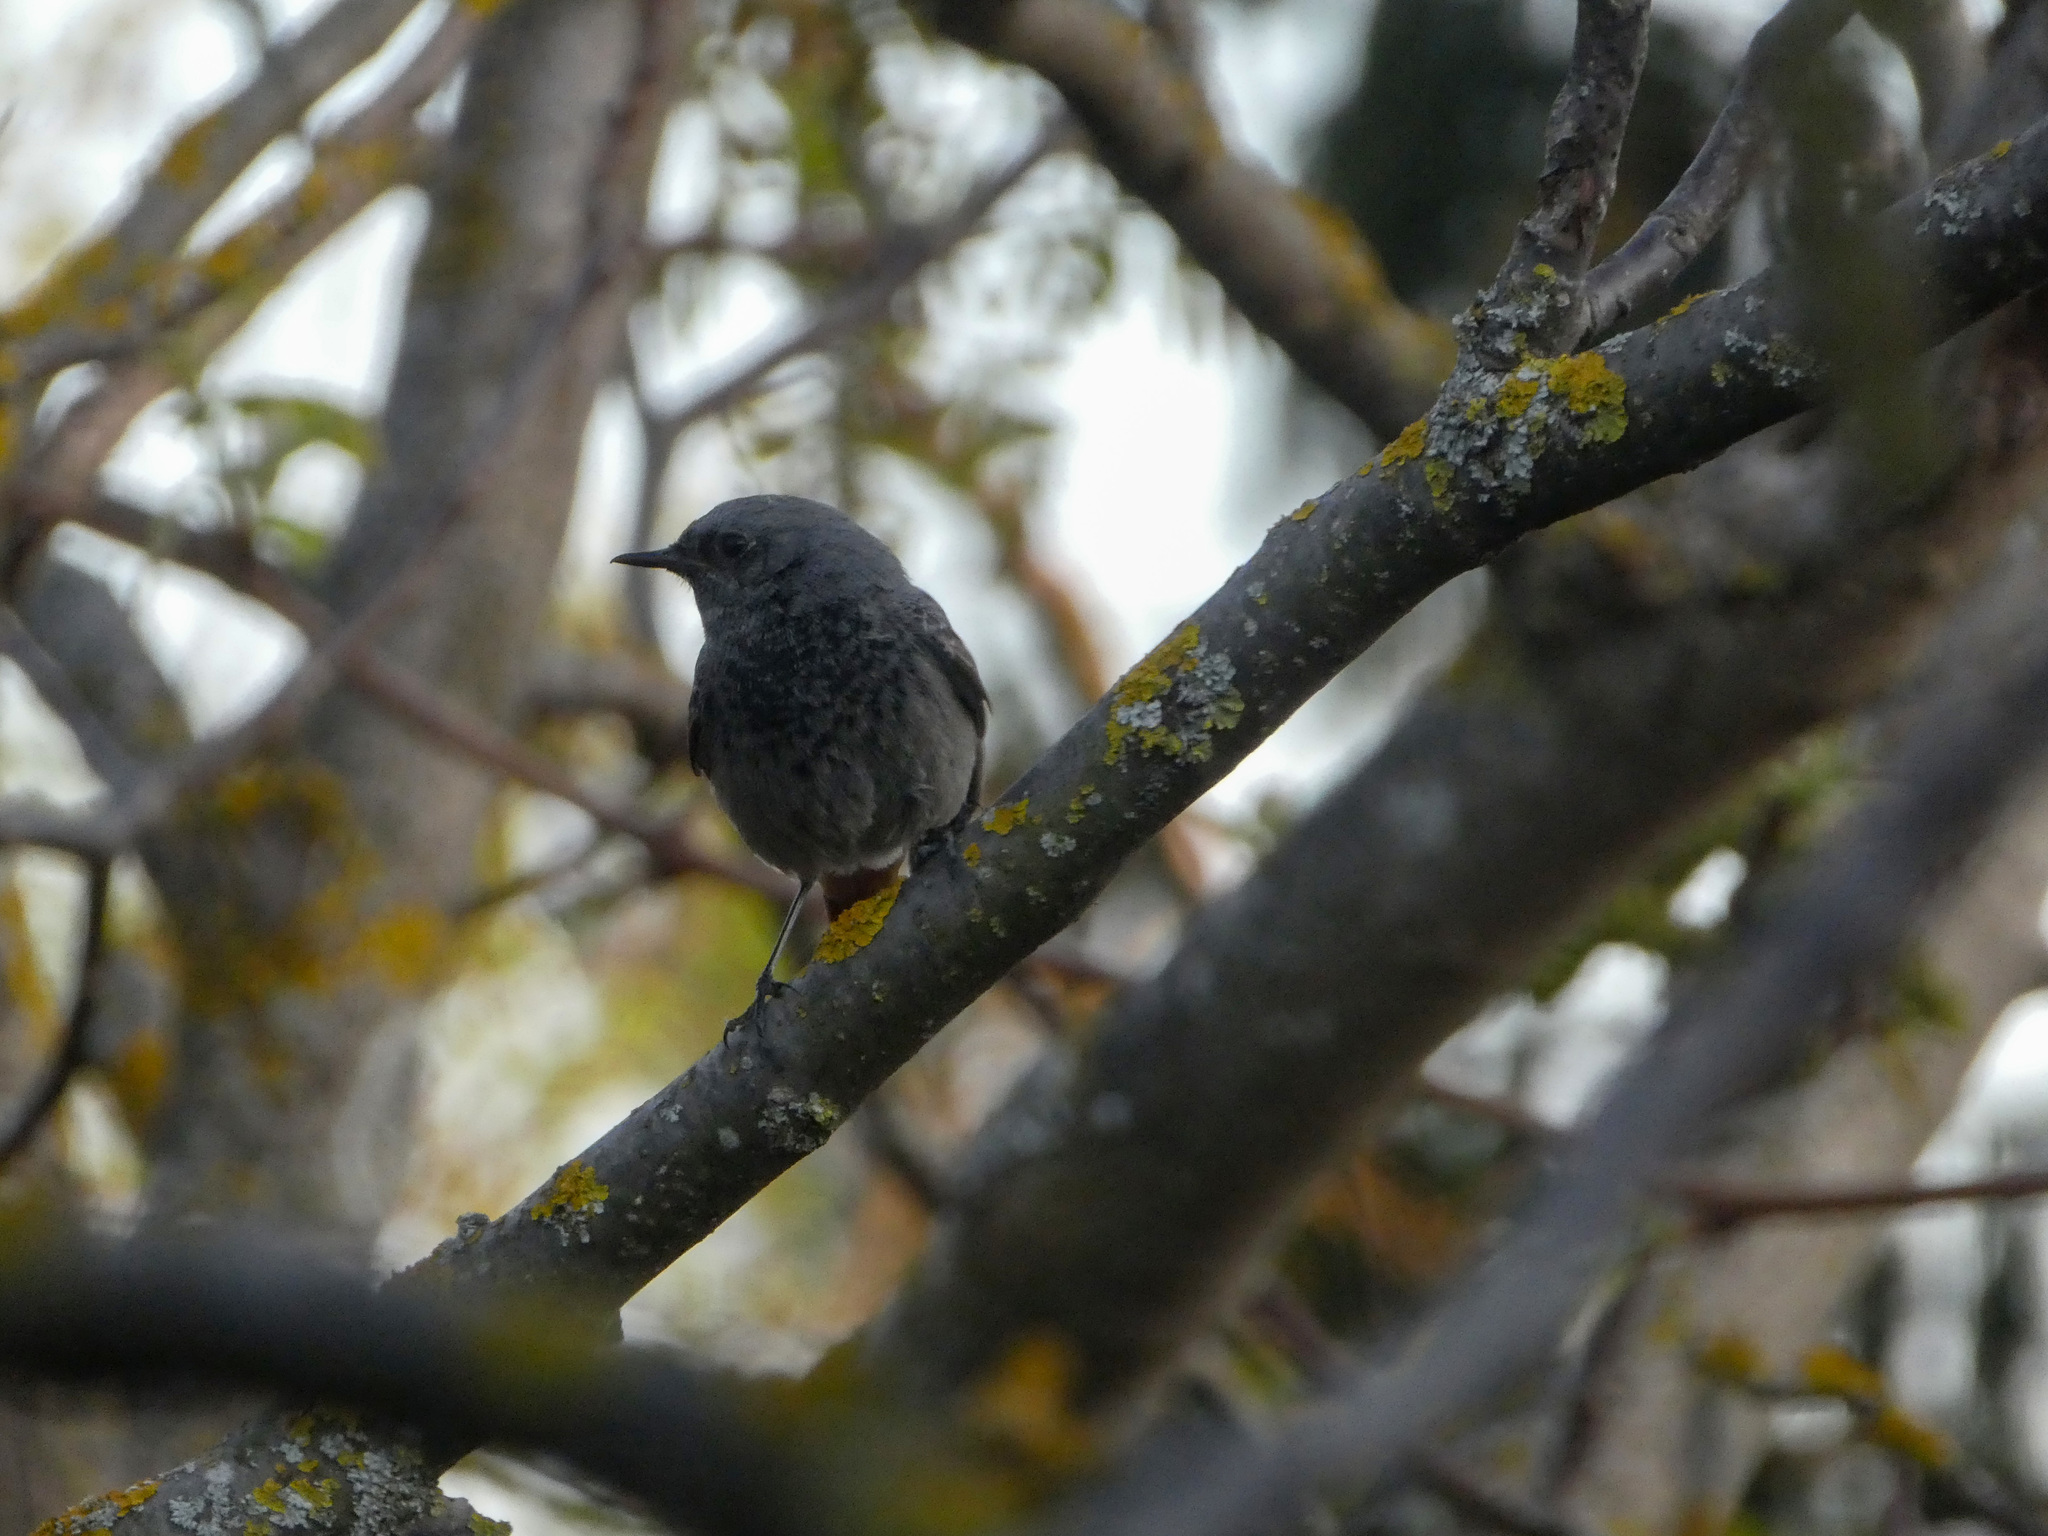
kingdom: Animalia
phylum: Chordata
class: Aves
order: Passeriformes
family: Muscicapidae
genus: Phoenicurus
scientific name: Phoenicurus ochruros
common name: Black redstart
